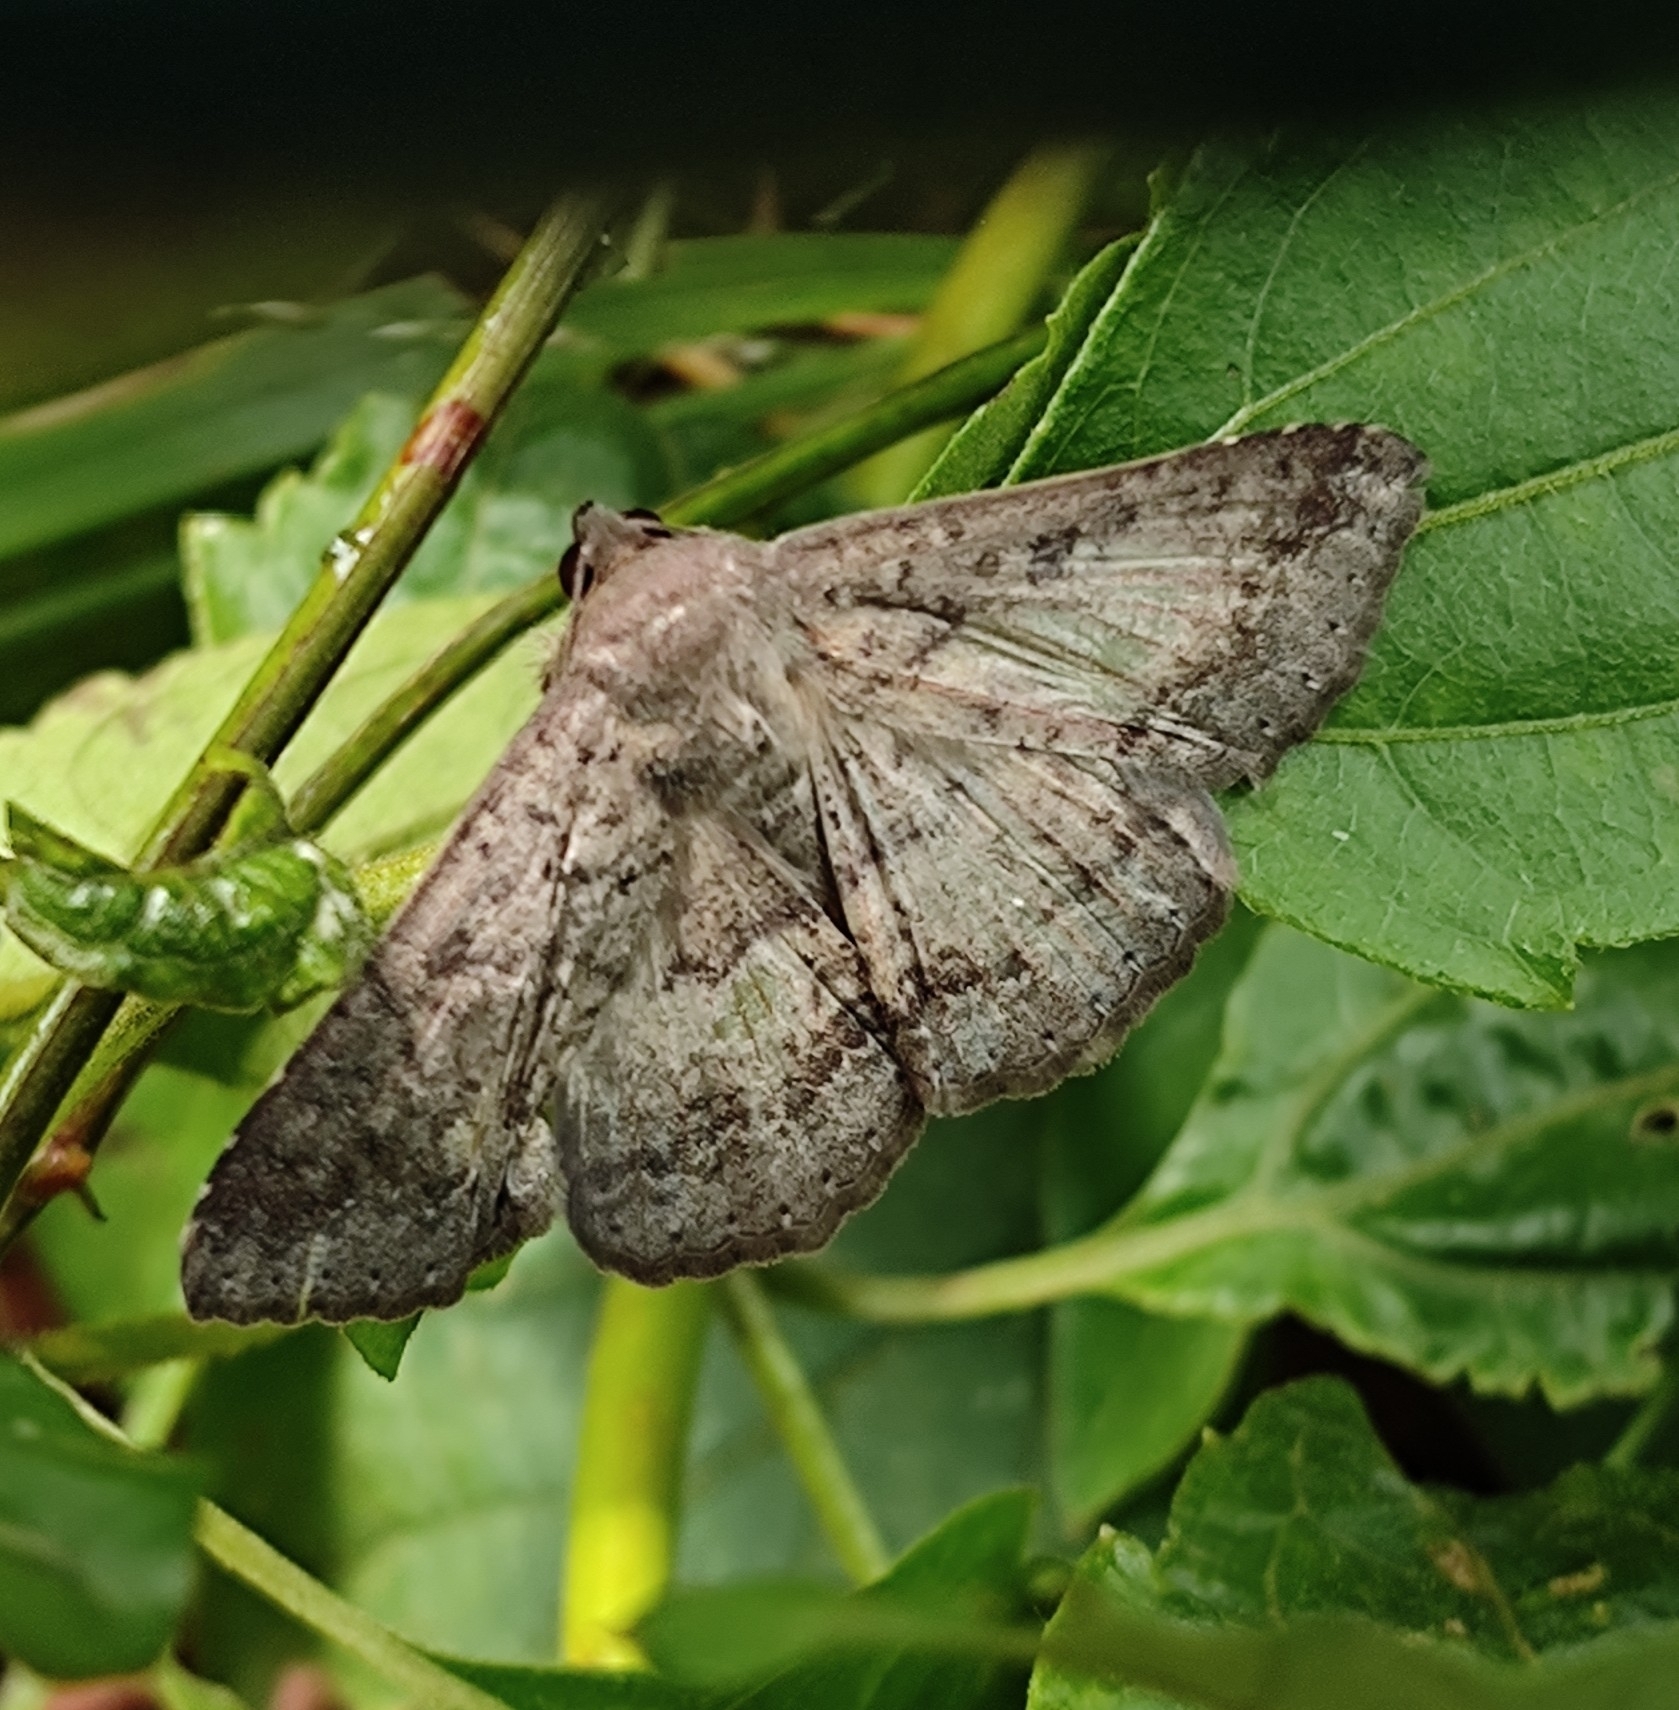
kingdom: Animalia
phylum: Arthropoda
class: Insecta
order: Lepidoptera
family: Erebidae
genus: Ericeia
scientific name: Ericeia inangulata
